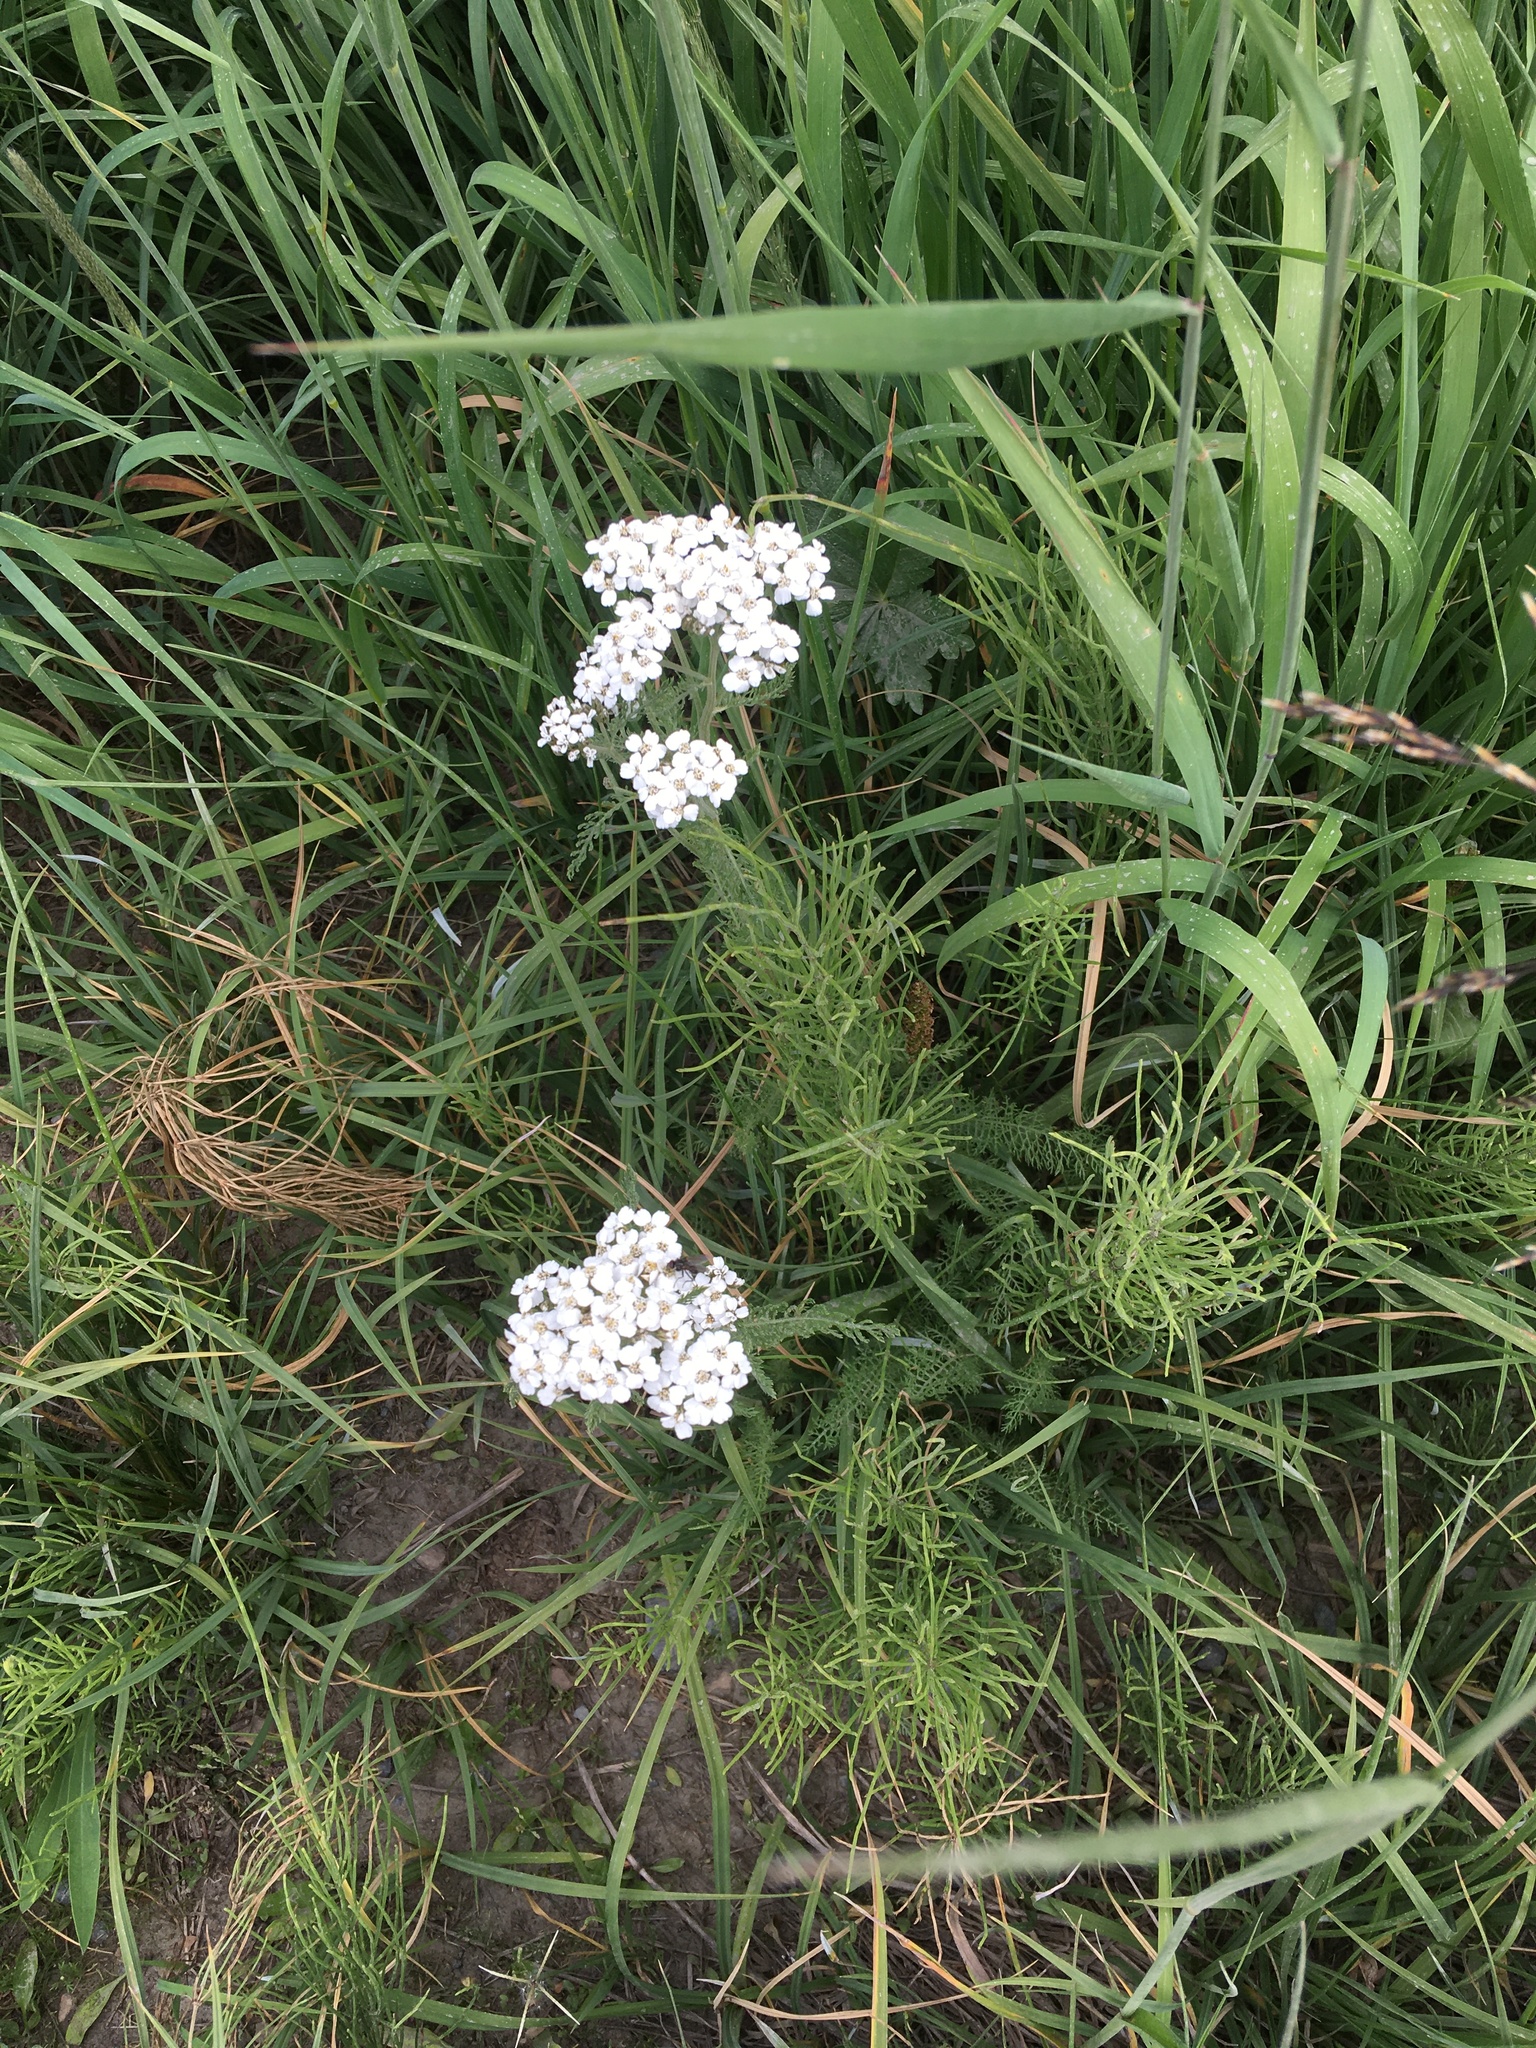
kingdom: Plantae
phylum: Tracheophyta
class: Magnoliopsida
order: Asterales
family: Asteraceae
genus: Achillea
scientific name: Achillea millefolium
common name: Yarrow
